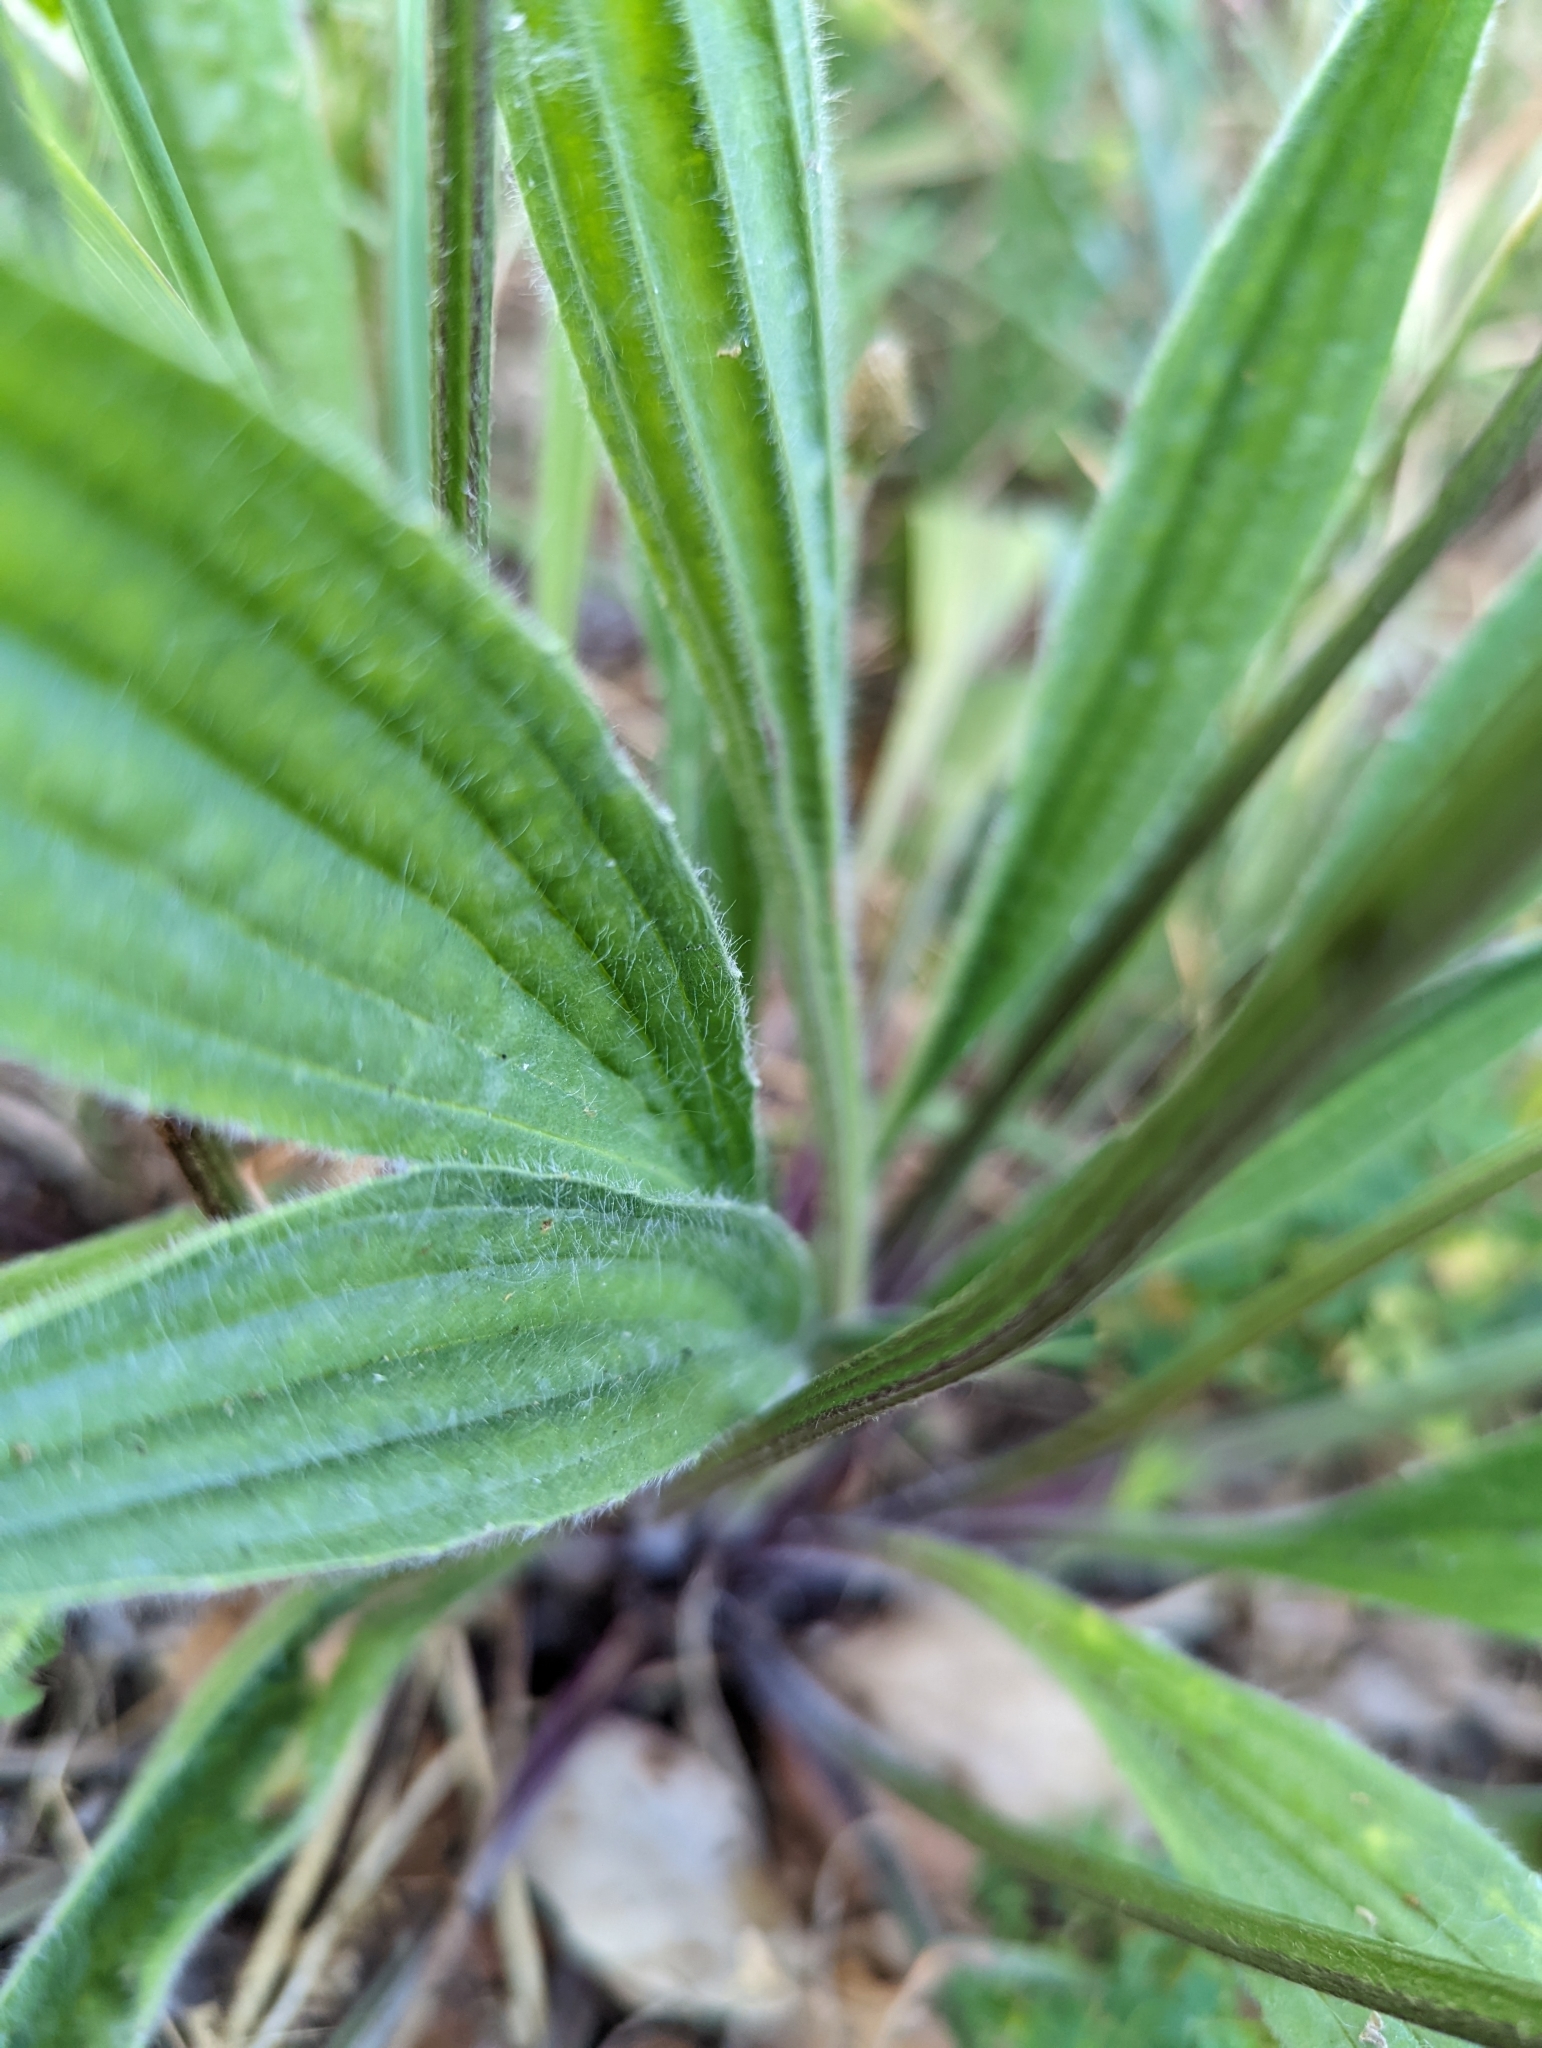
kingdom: Plantae
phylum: Tracheophyta
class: Magnoliopsida
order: Lamiales
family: Plantaginaceae
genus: Plantago
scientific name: Plantago lanceolata
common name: Ribwort plantain
